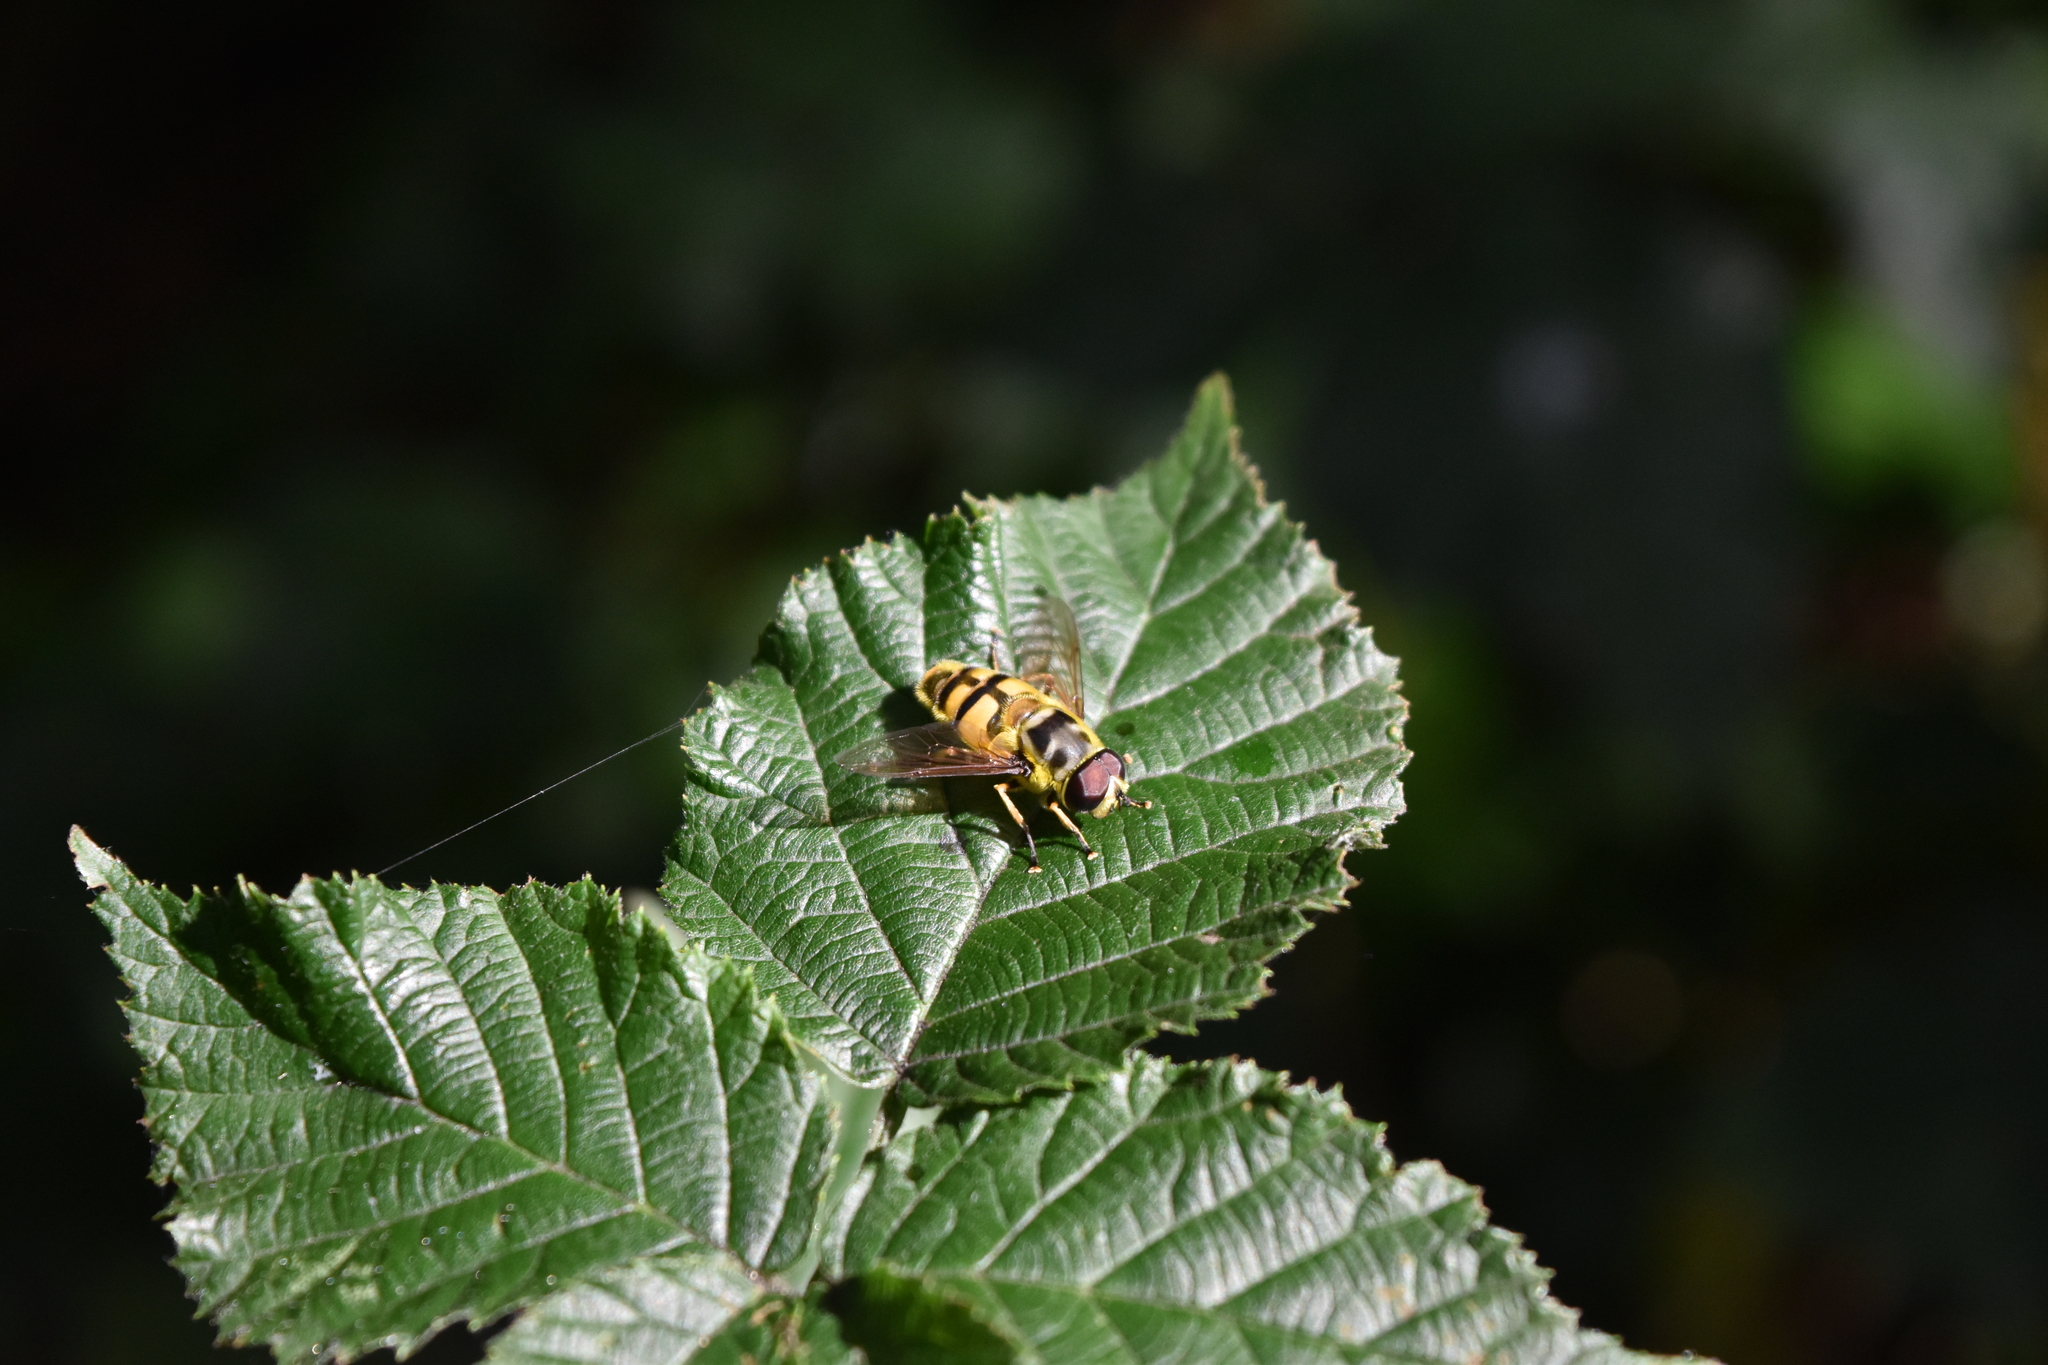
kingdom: Animalia
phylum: Arthropoda
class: Insecta
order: Diptera
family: Syrphidae
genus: Myathropa
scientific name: Myathropa florea
